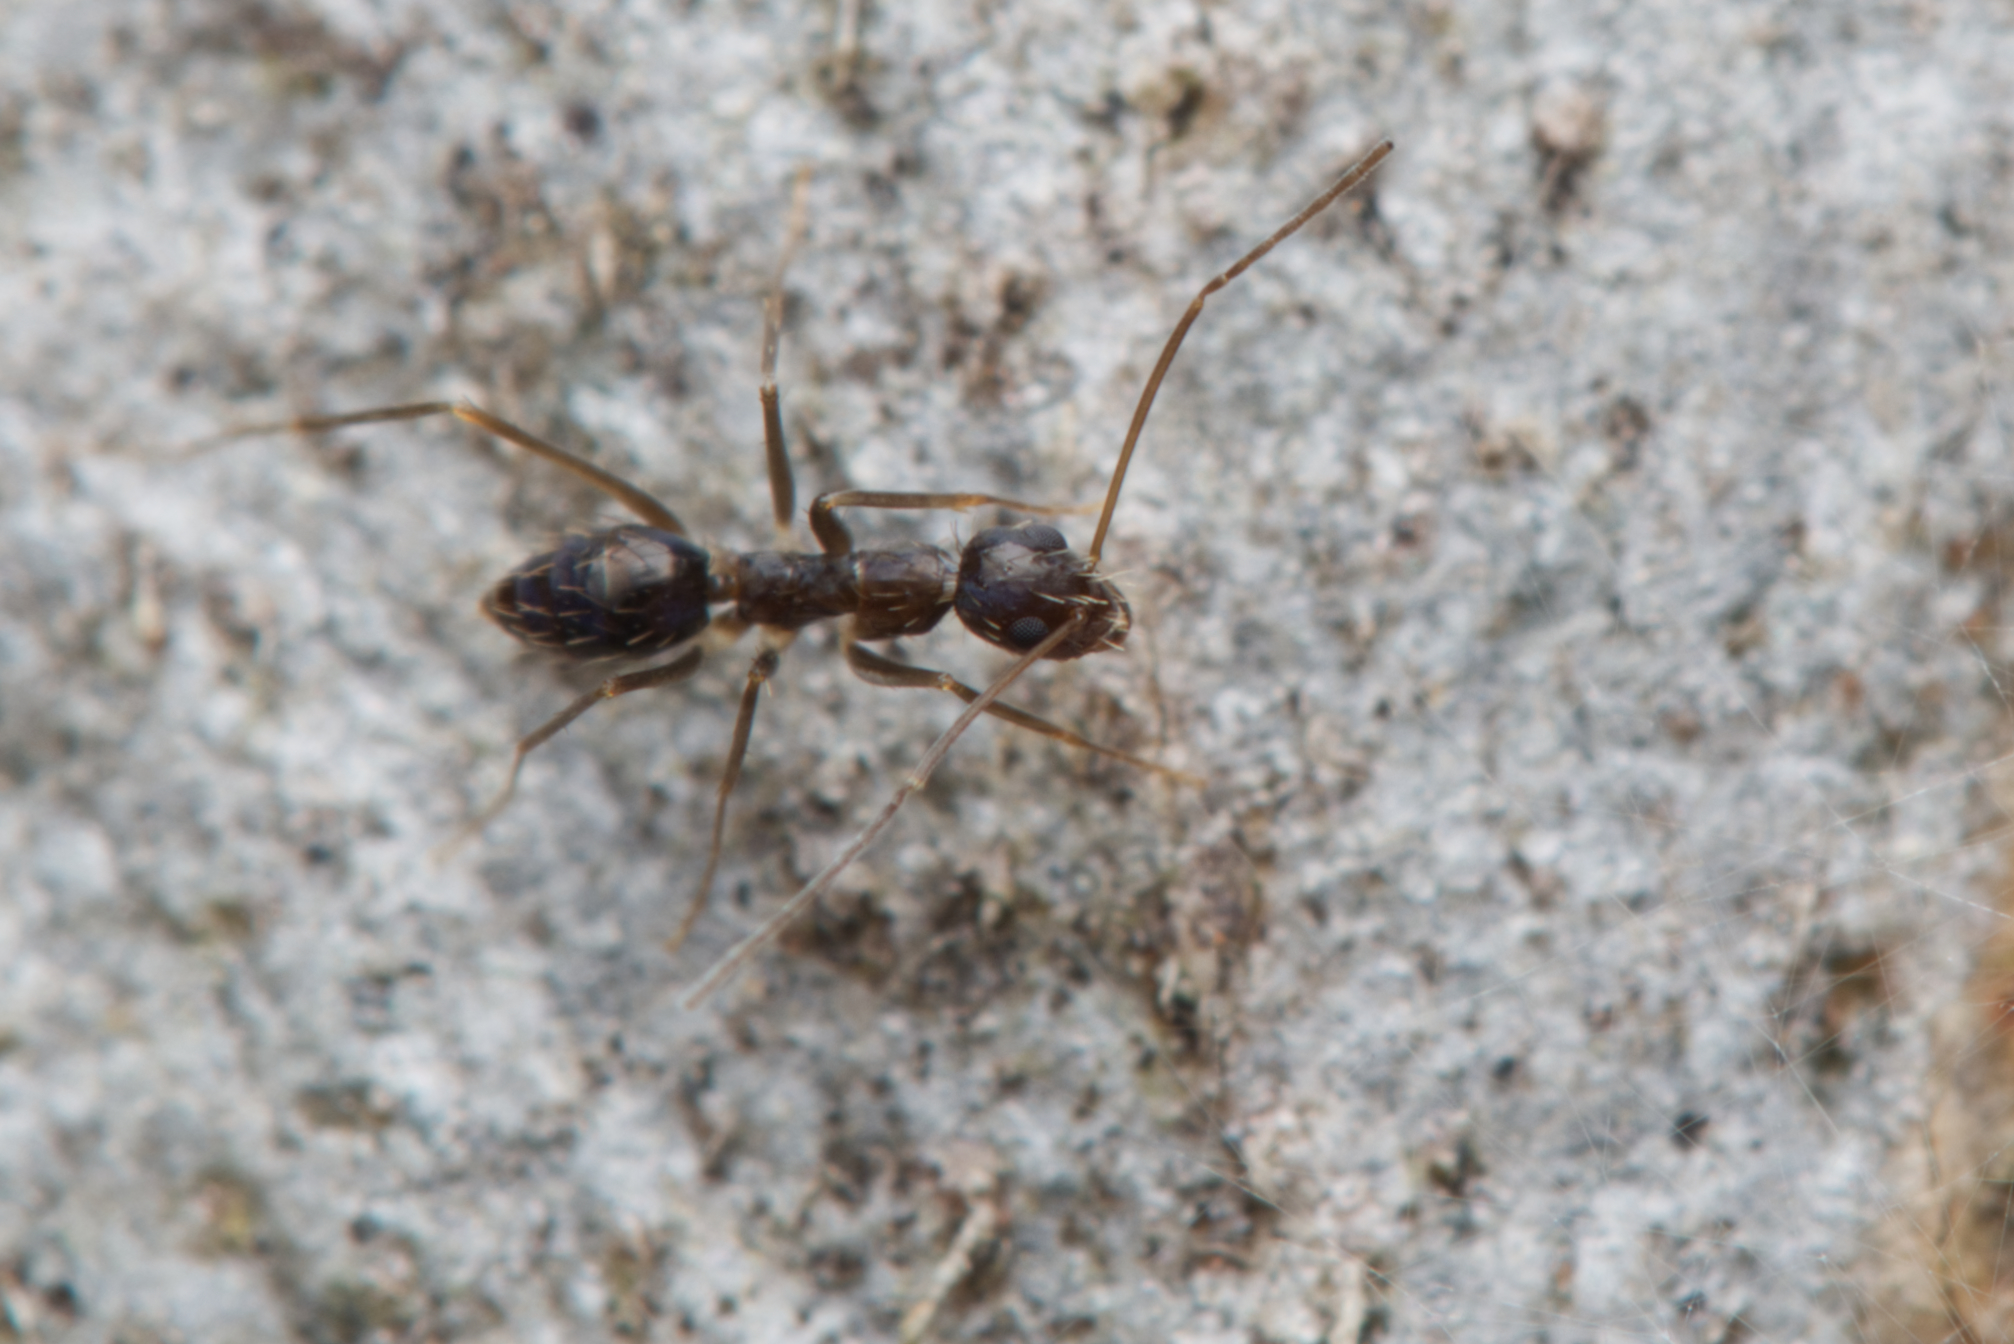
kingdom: Animalia
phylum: Arthropoda
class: Insecta
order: Hymenoptera
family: Formicidae
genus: Paratrechina
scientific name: Paratrechina longicornis
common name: Longhorned crazy ant
